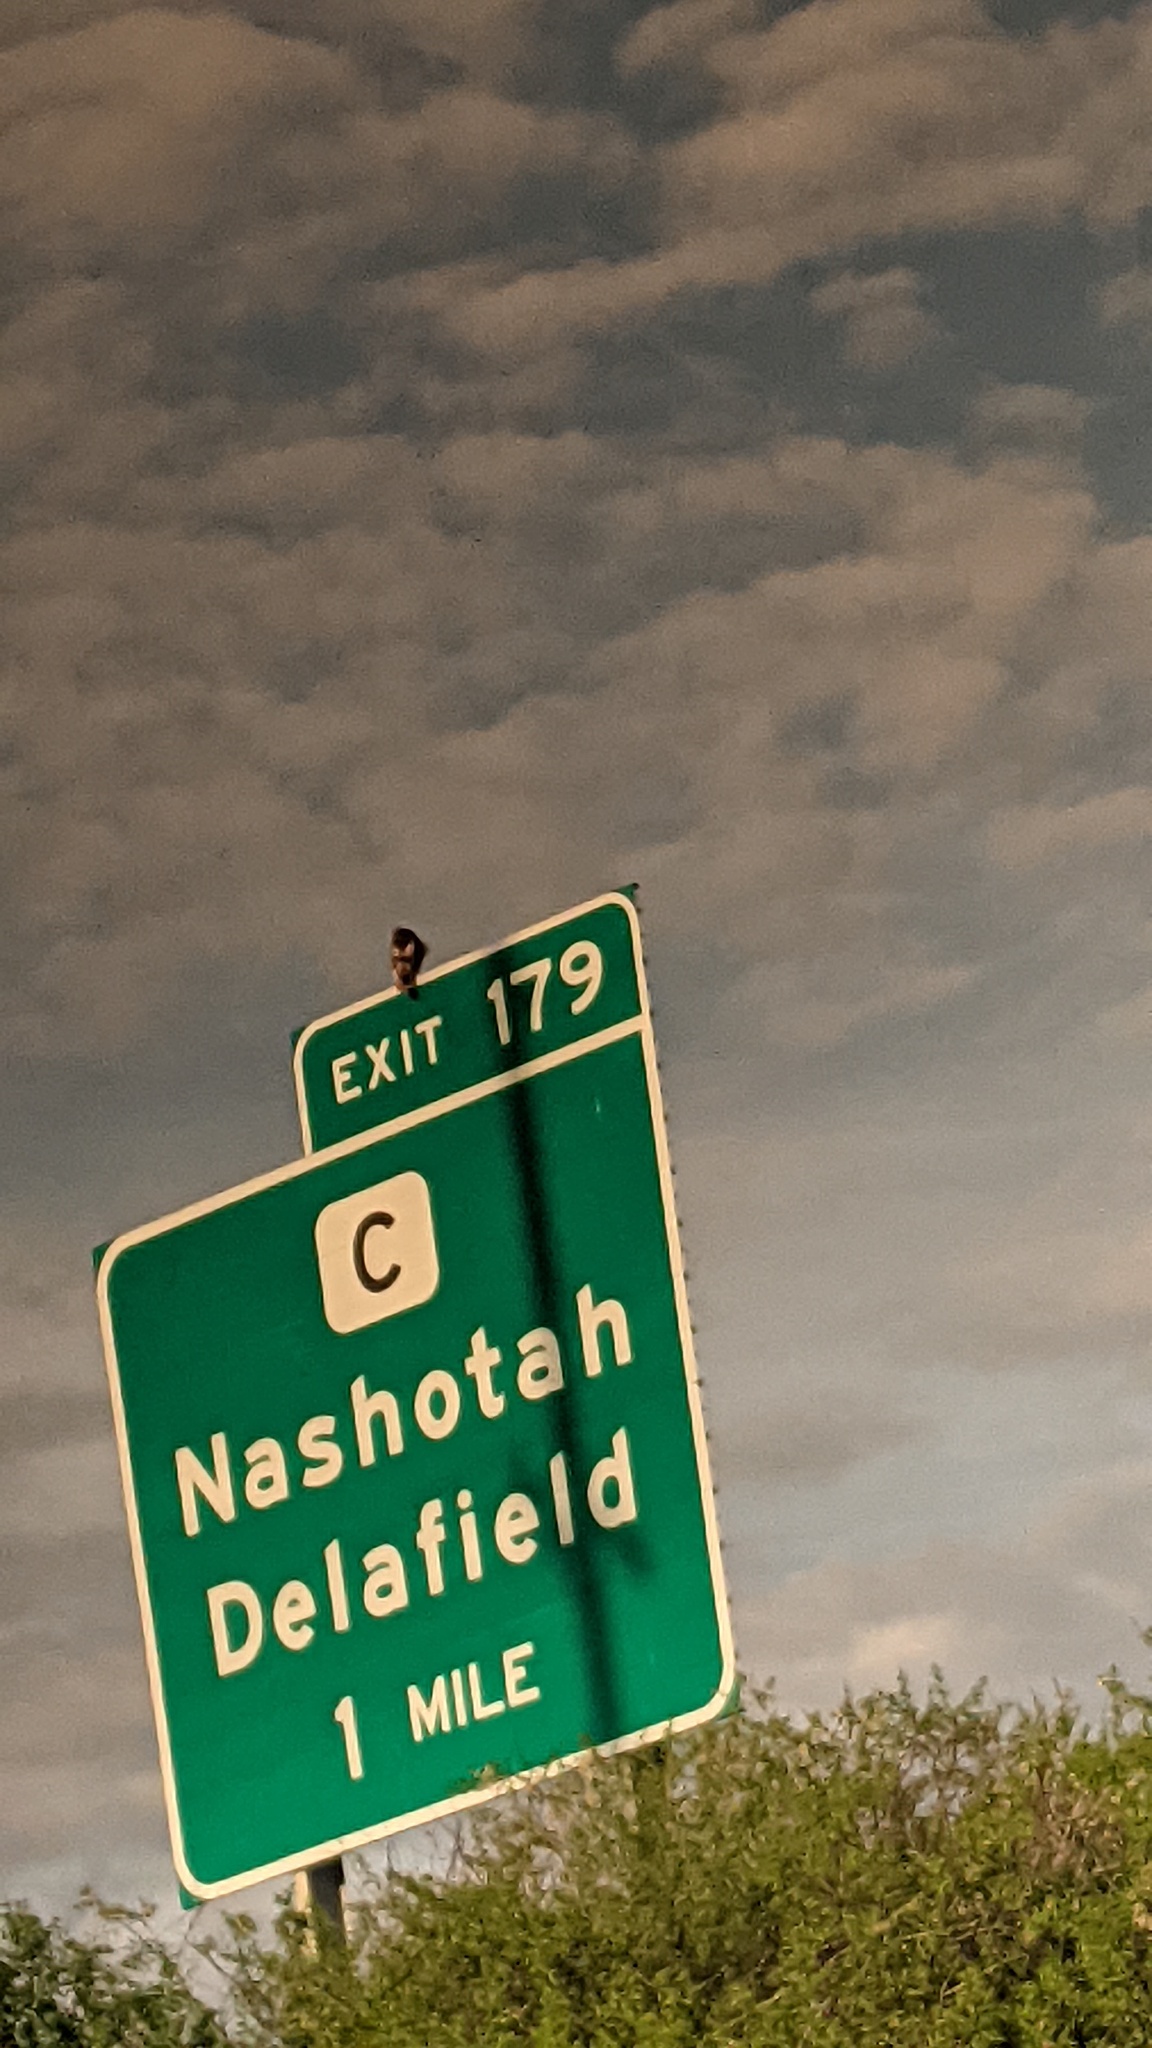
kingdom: Animalia
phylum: Chordata
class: Aves
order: Accipitriformes
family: Accipitridae
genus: Buteo
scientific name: Buteo jamaicensis
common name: Red-tailed hawk
